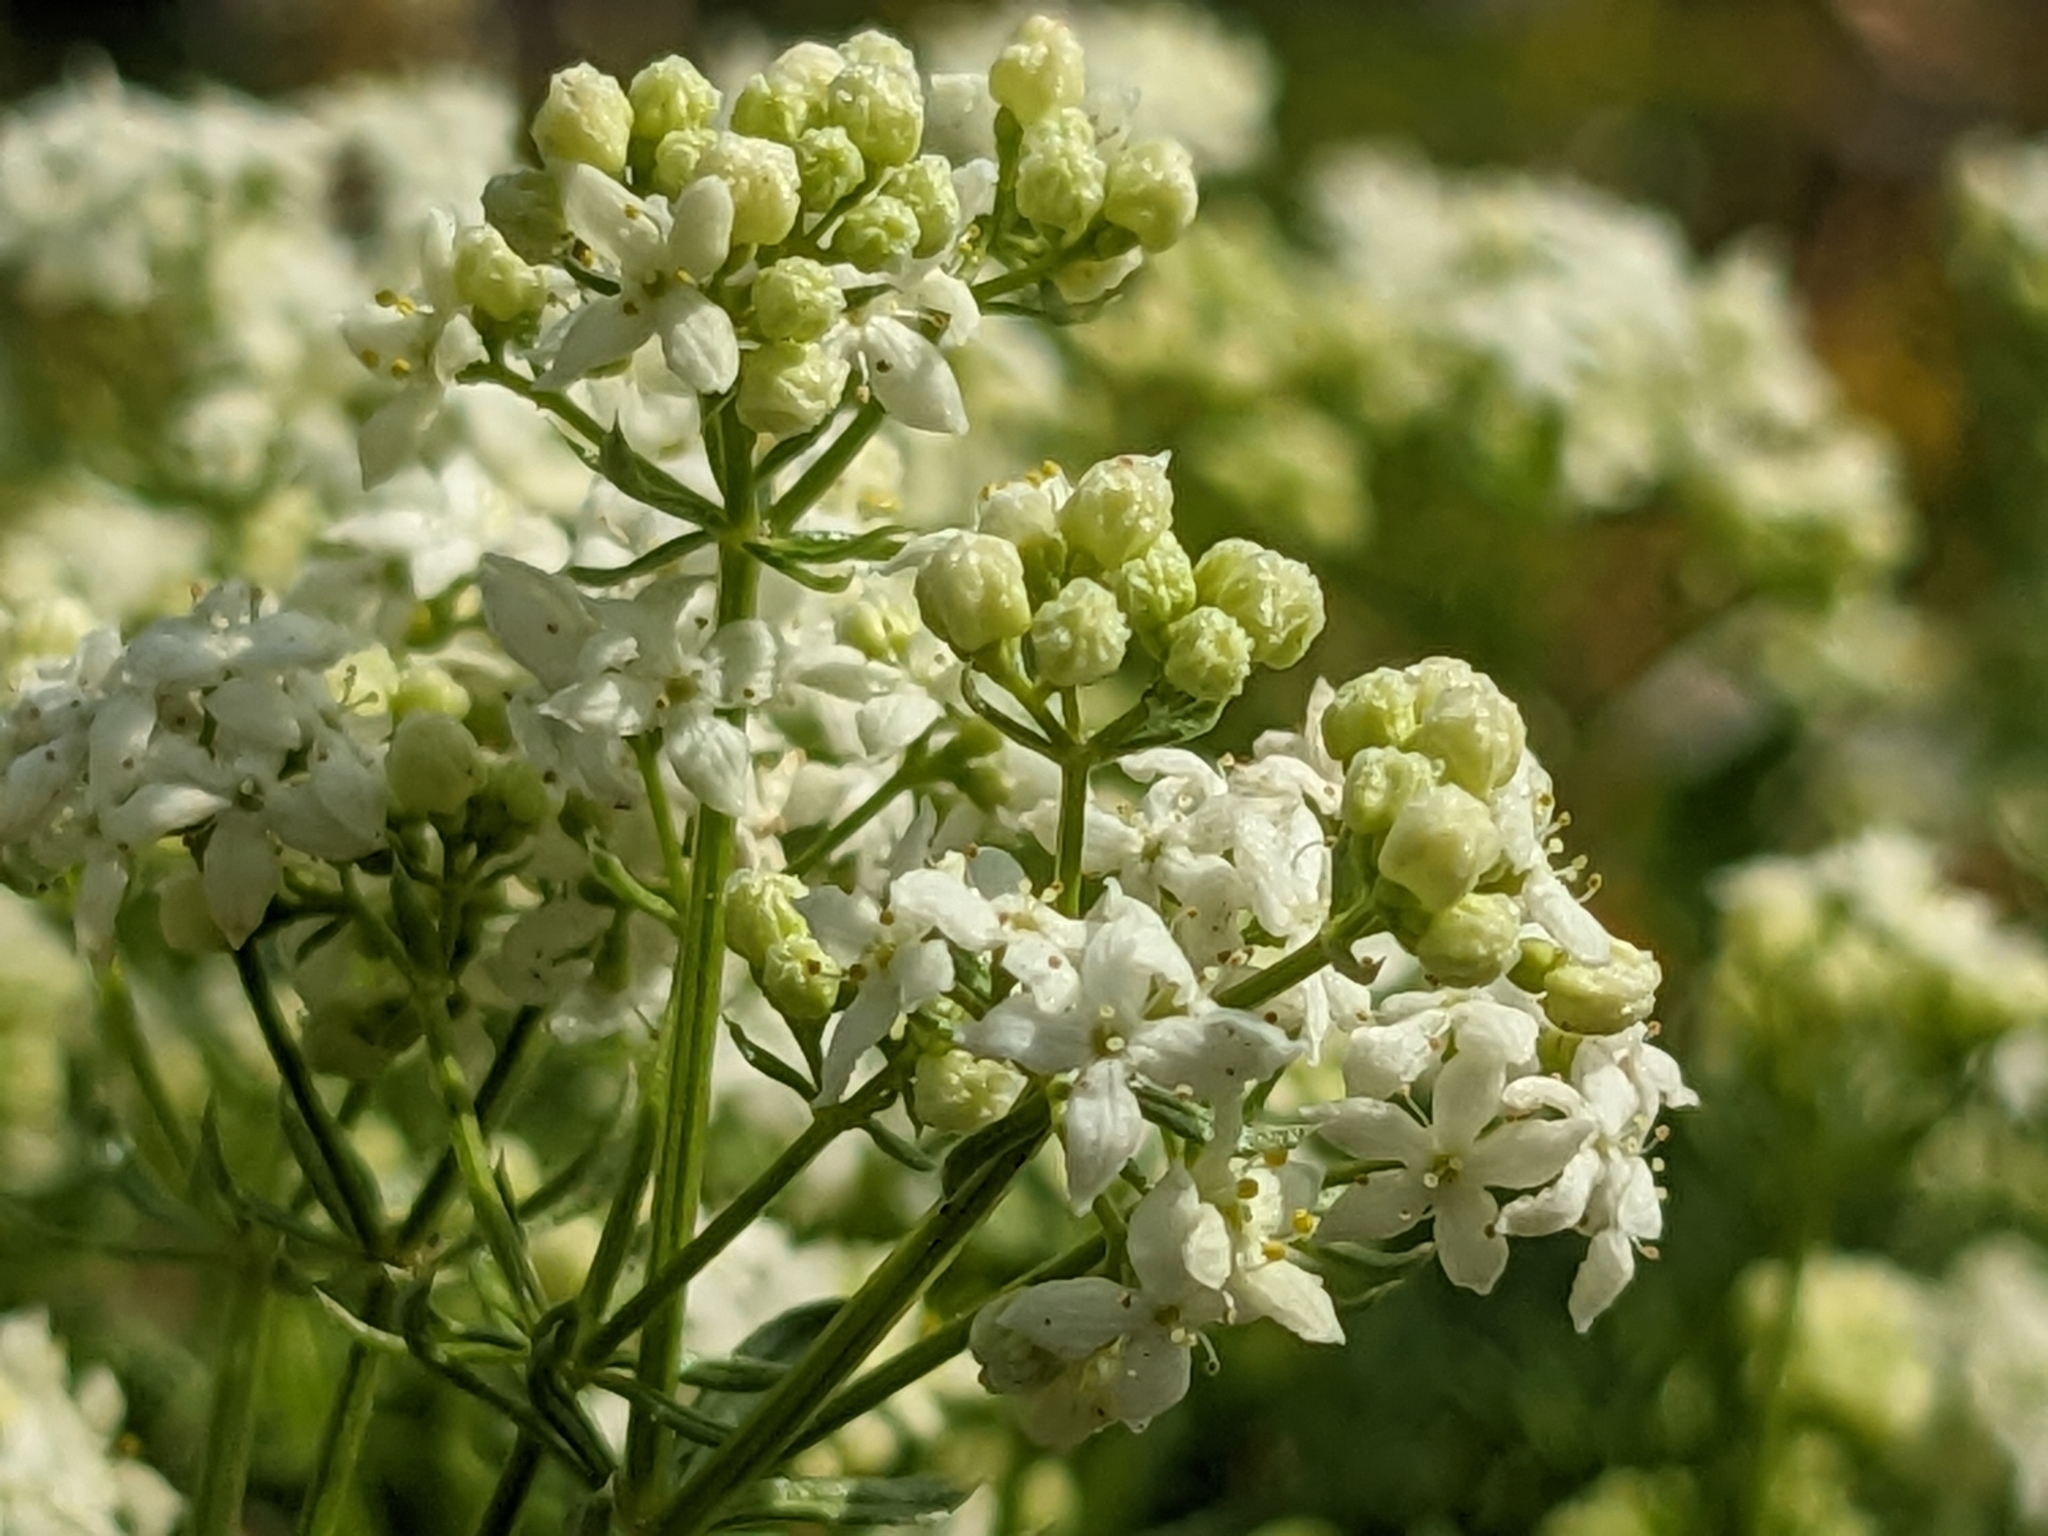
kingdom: Plantae
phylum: Tracheophyta
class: Magnoliopsida
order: Gentianales
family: Rubiaceae
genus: Galium
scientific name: Galium anisophyllon
